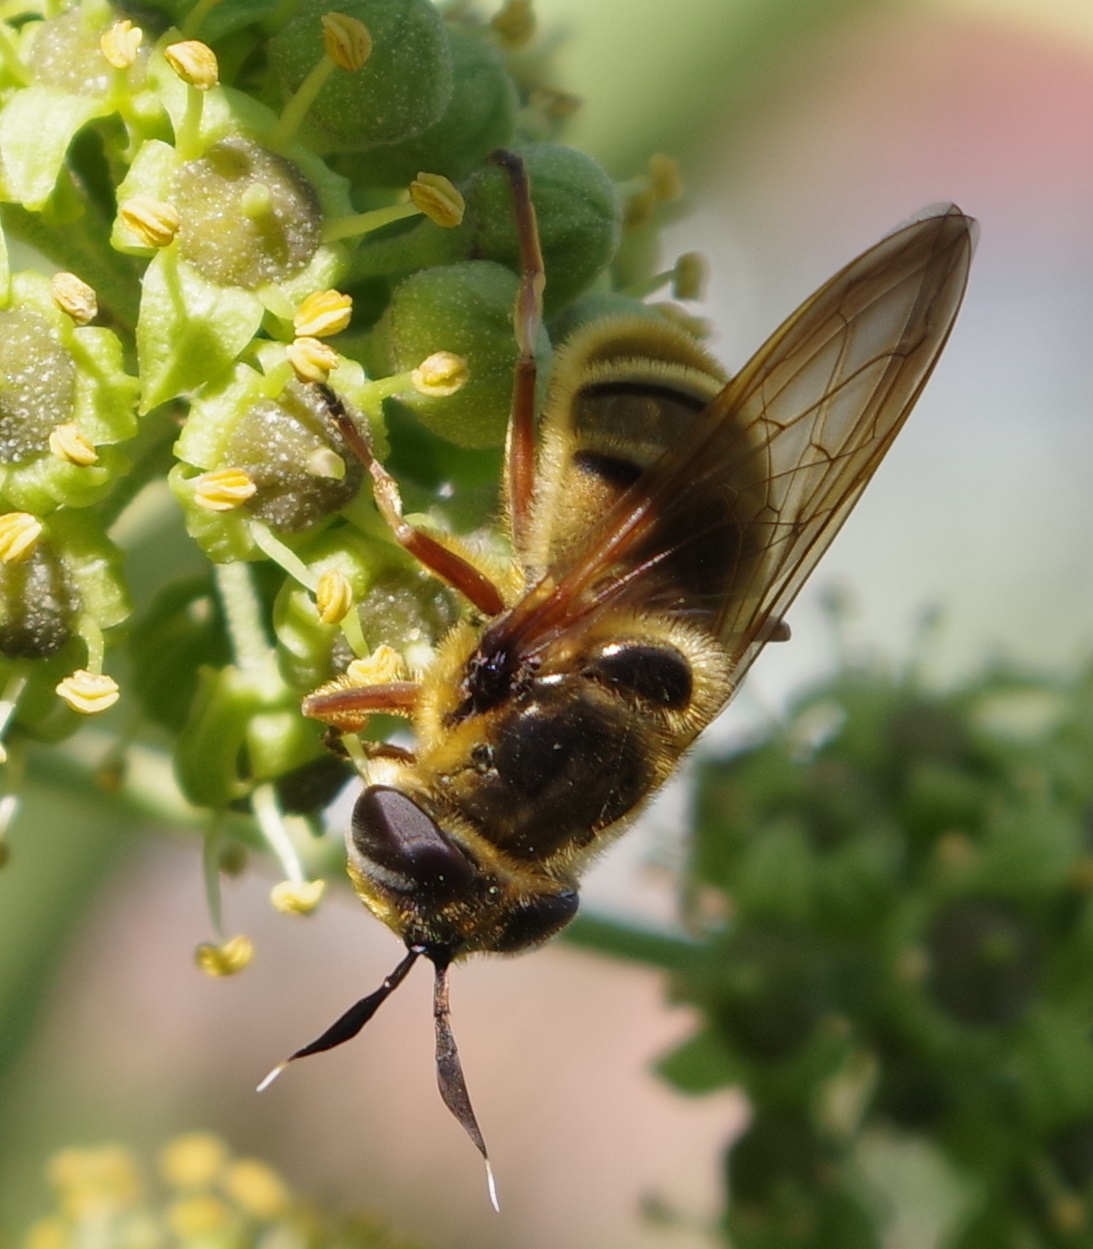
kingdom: Animalia
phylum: Arthropoda
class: Insecta
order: Diptera
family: Syrphidae
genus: Callicera
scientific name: Callicera spinolae
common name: Golden hoverfly
